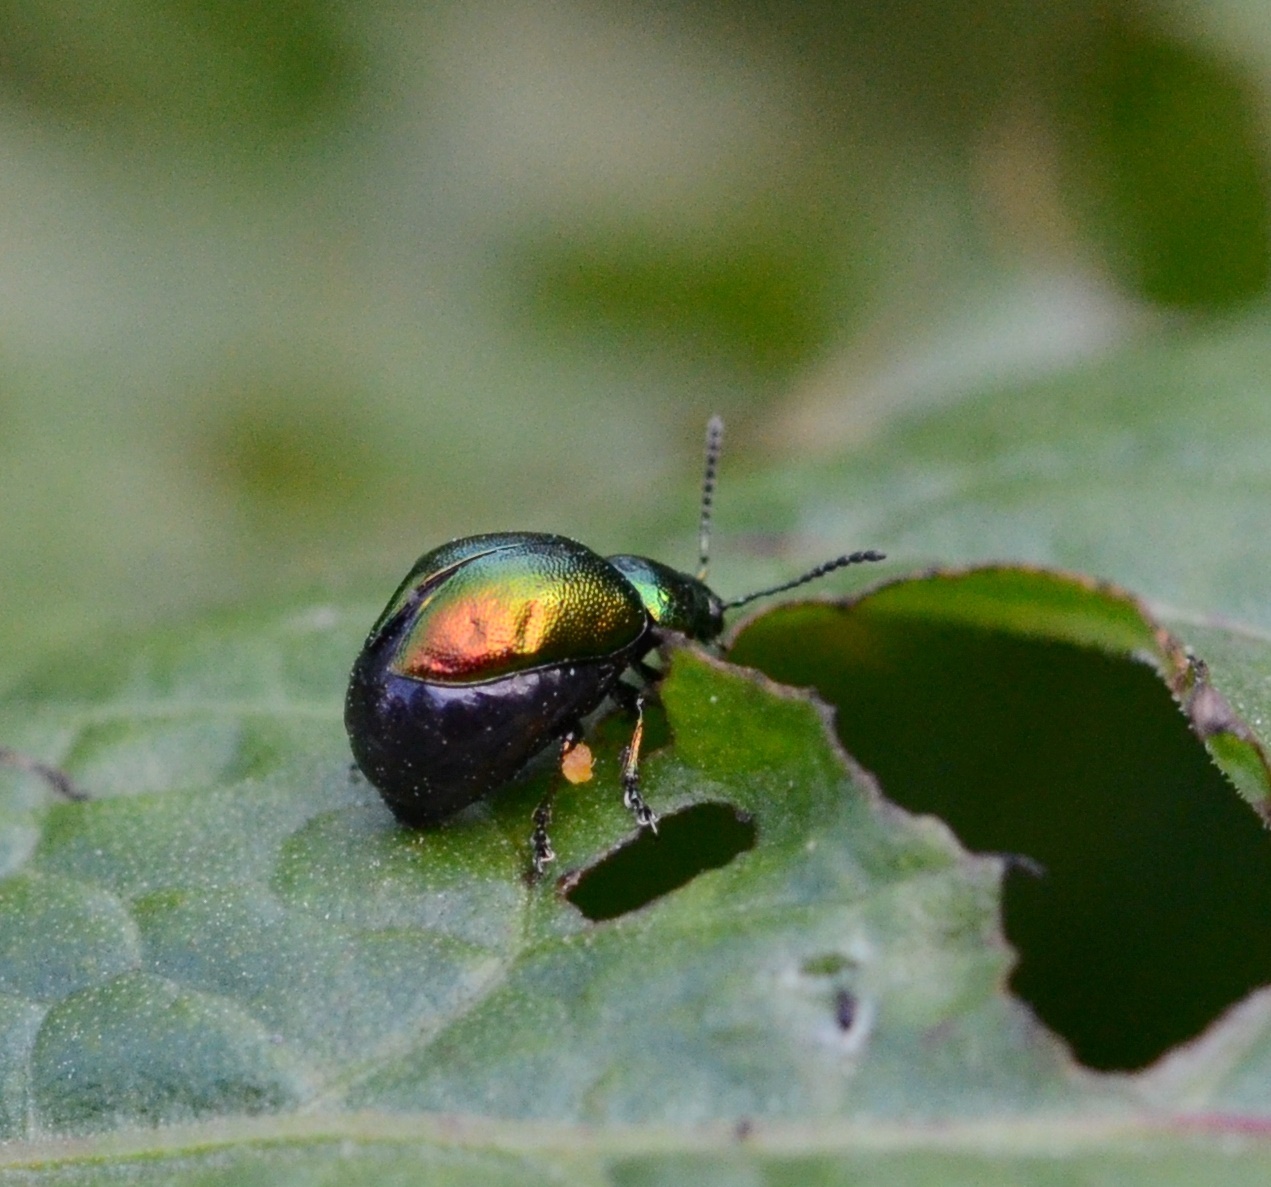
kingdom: Animalia
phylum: Arthropoda
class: Insecta
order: Coleoptera
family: Chrysomelidae
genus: Gastrophysa
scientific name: Gastrophysa viridula
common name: Green dock beetle
